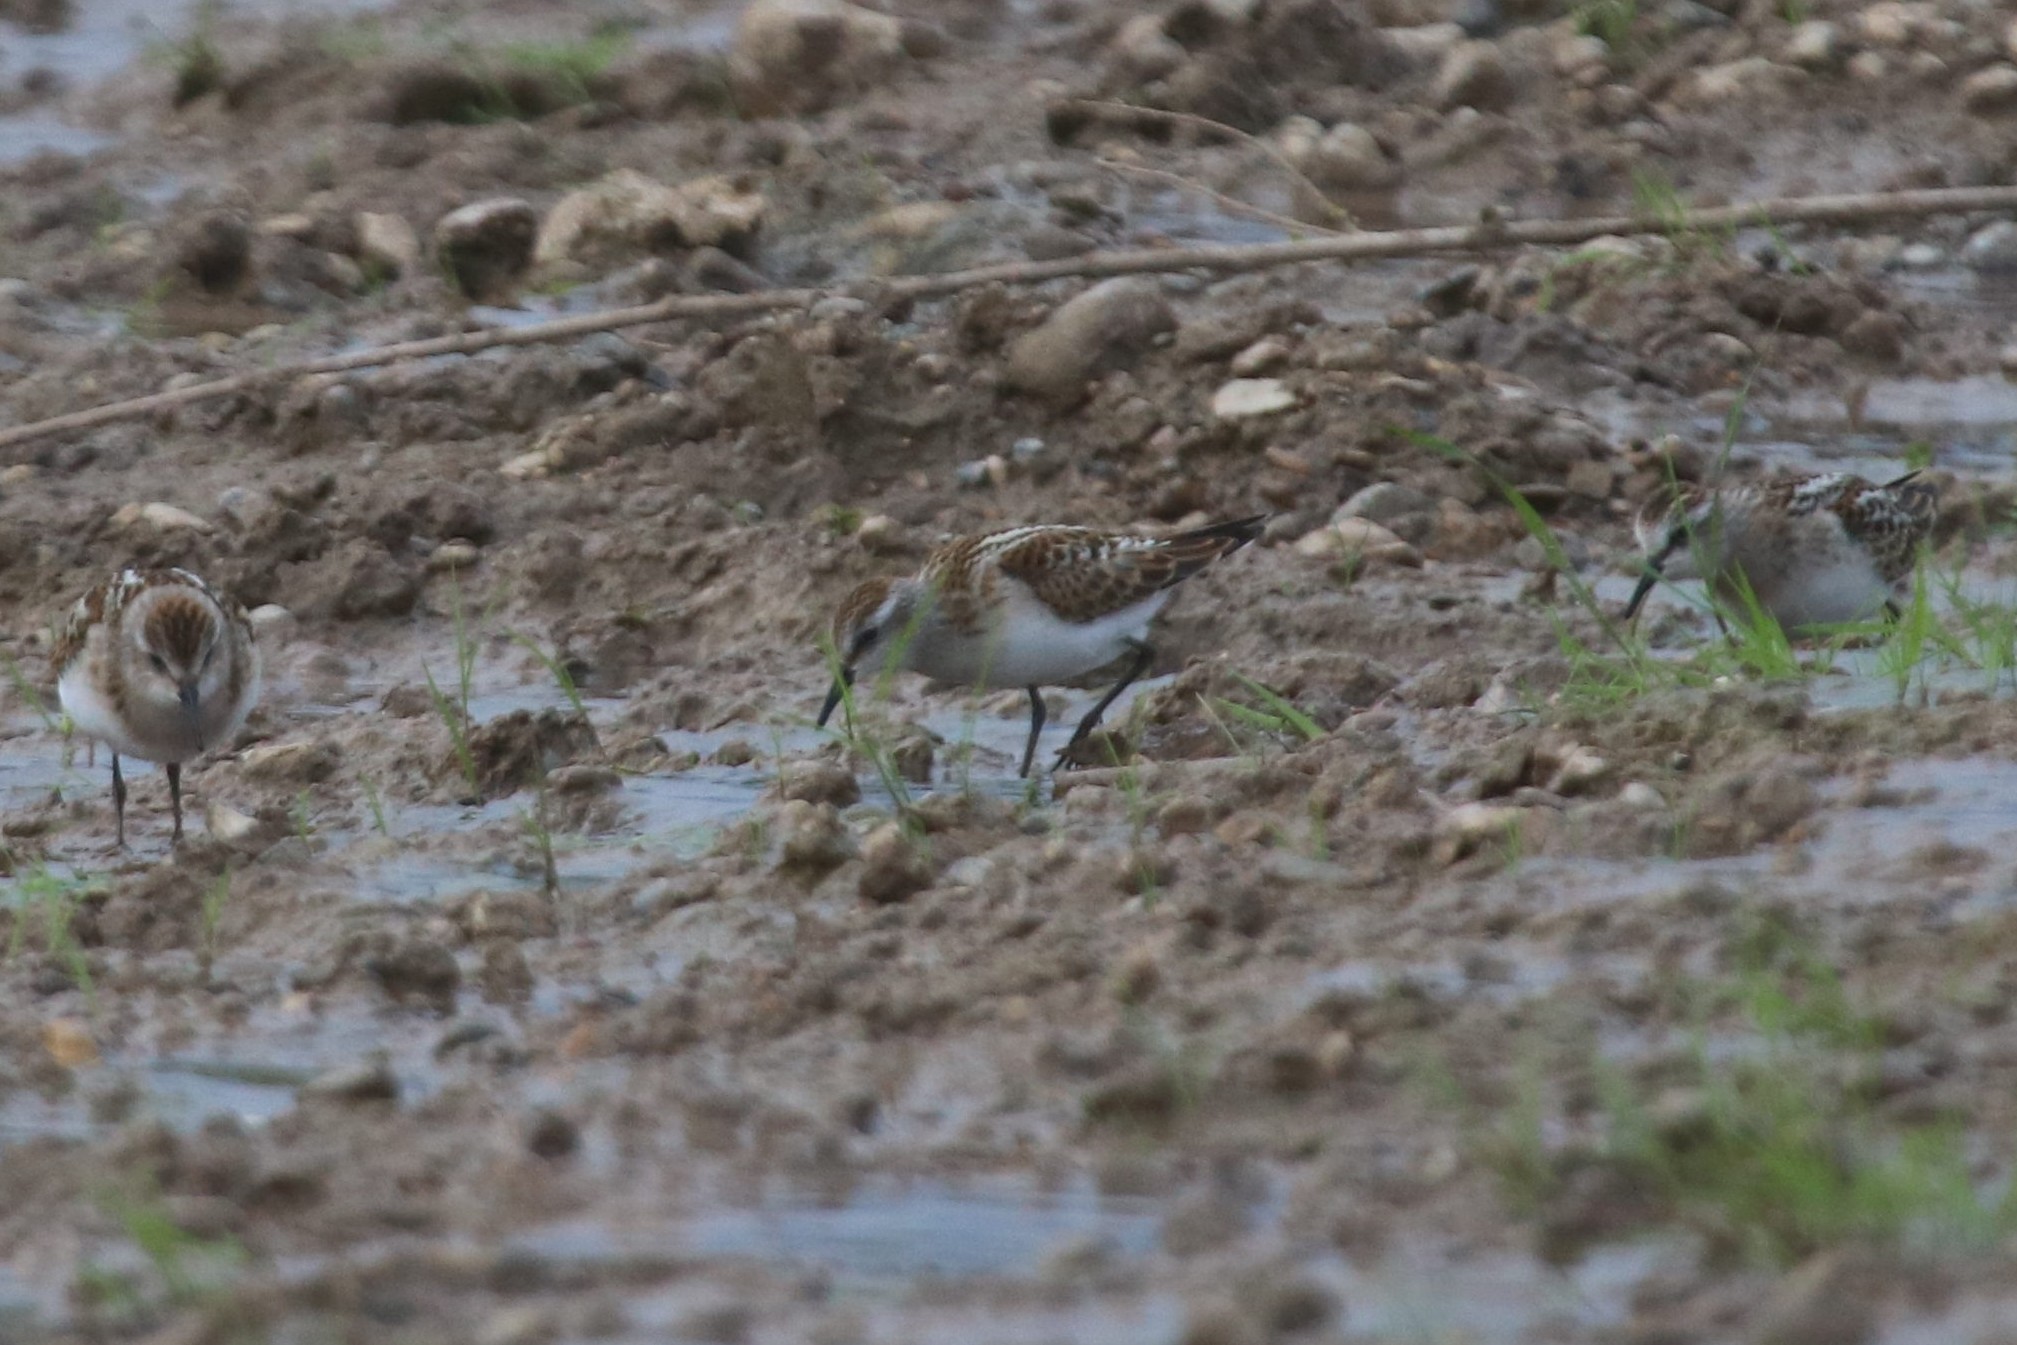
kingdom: Animalia
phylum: Chordata
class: Aves
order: Charadriiformes
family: Scolopacidae
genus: Calidris
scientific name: Calidris minuta
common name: Little stint
